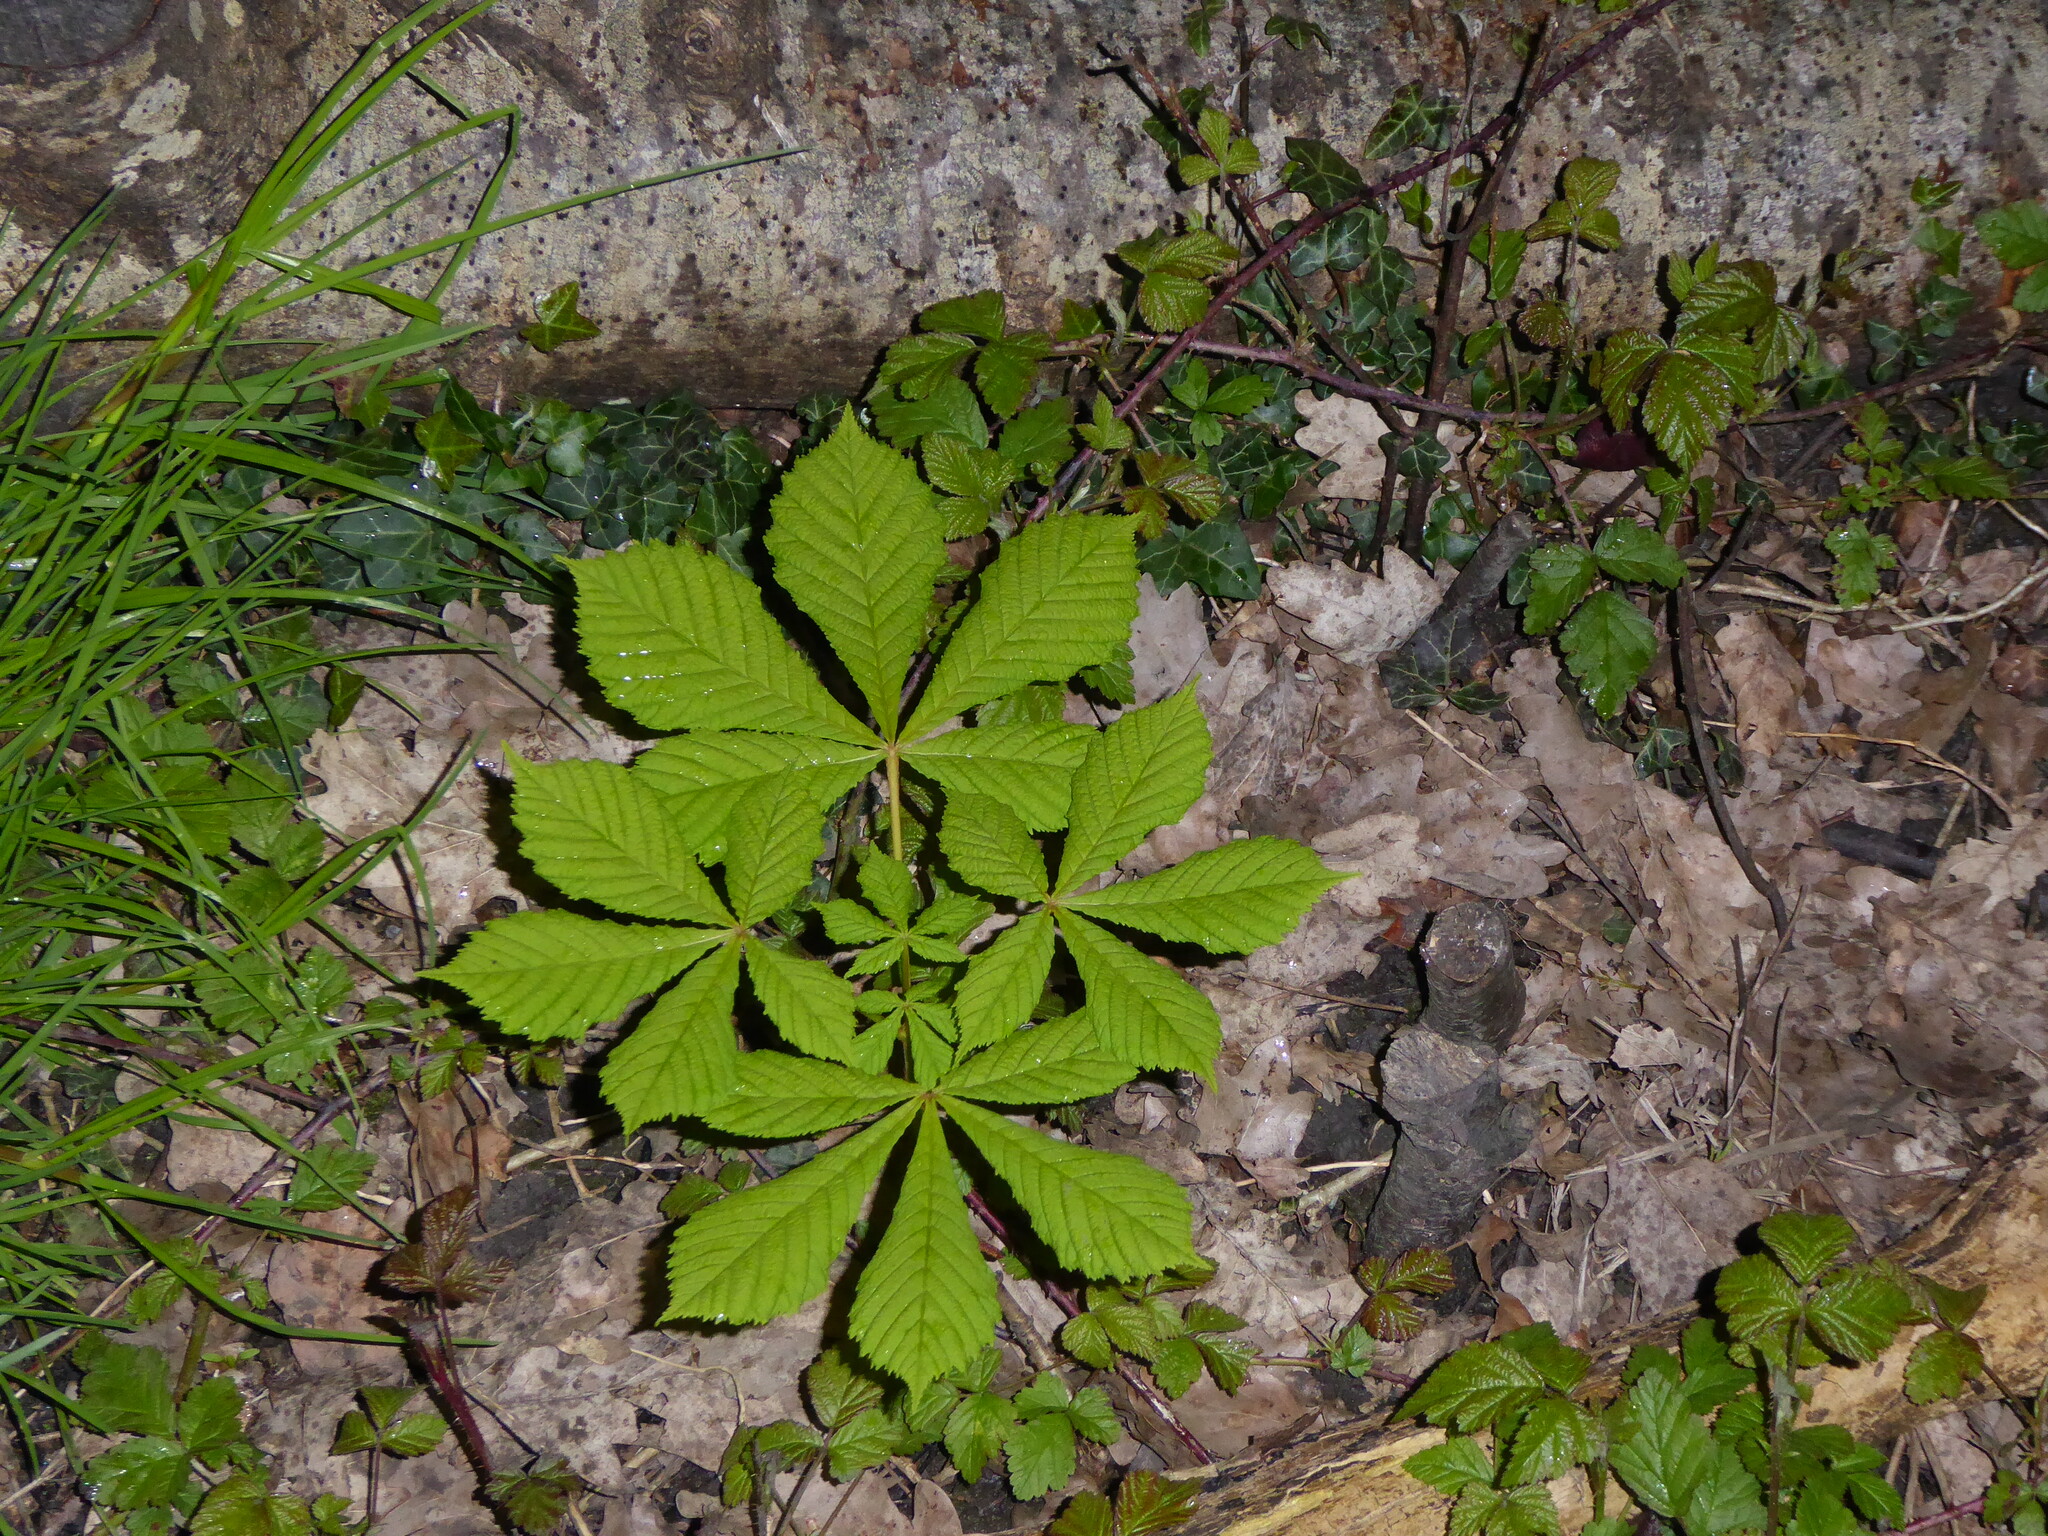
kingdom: Plantae
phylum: Tracheophyta
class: Magnoliopsida
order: Sapindales
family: Sapindaceae
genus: Aesculus
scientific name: Aesculus hippocastanum
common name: Horse-chestnut
